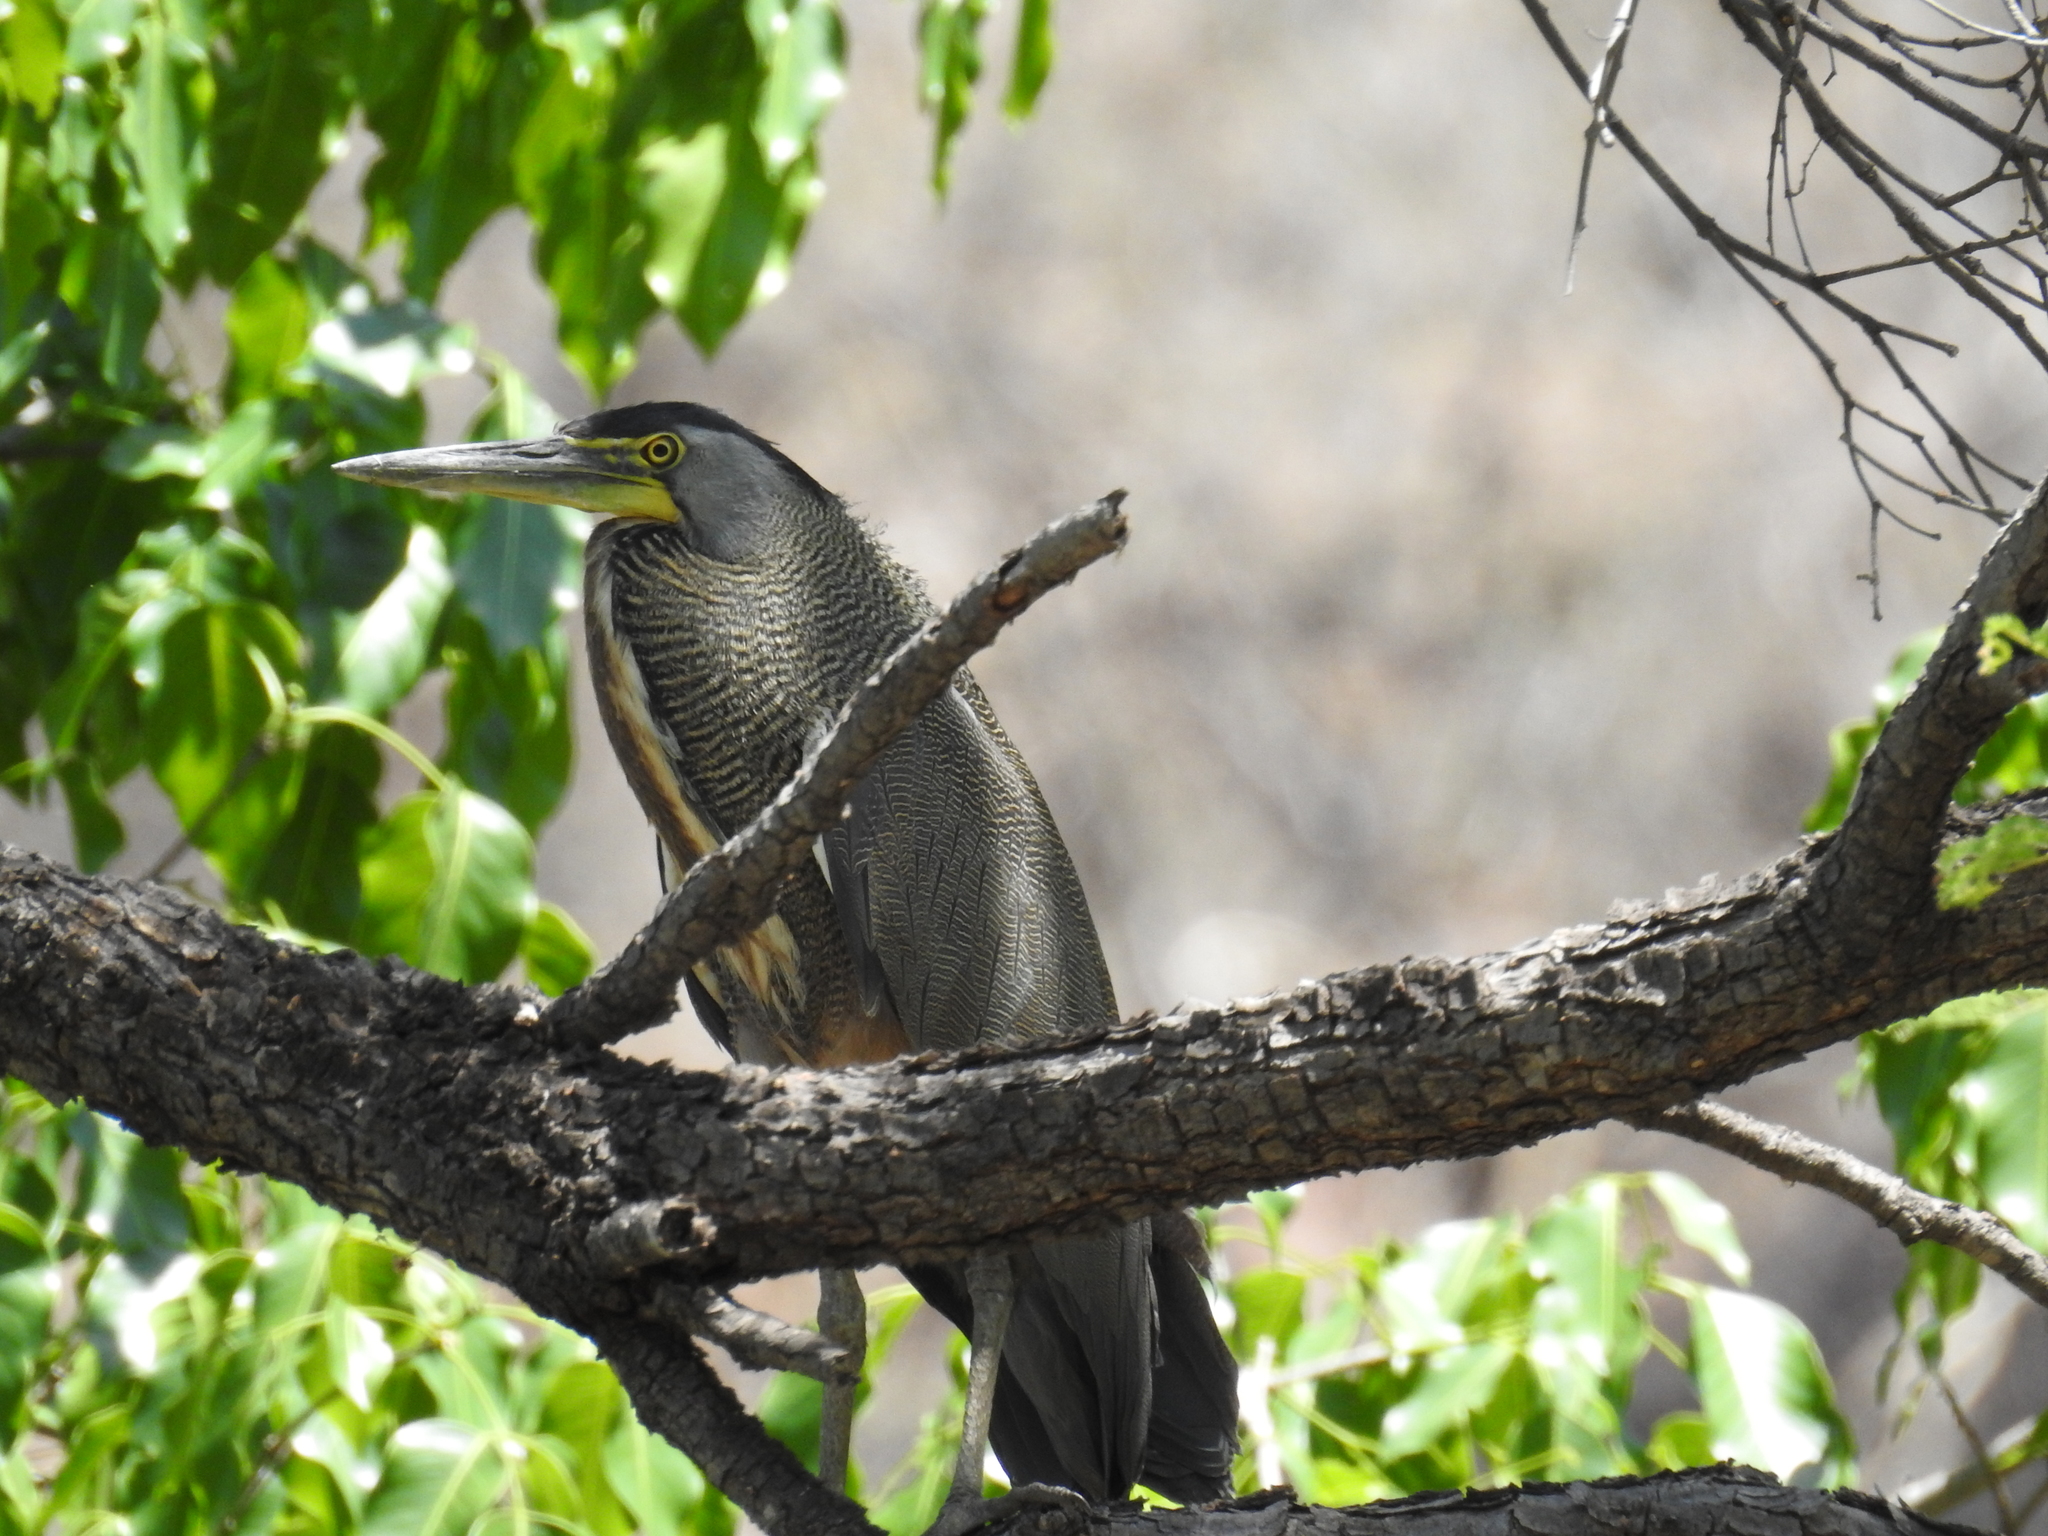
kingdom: Animalia
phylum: Chordata
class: Aves
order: Pelecaniformes
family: Ardeidae
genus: Tigrisoma
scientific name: Tigrisoma mexicanum
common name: Bare-throated tiger-heron
